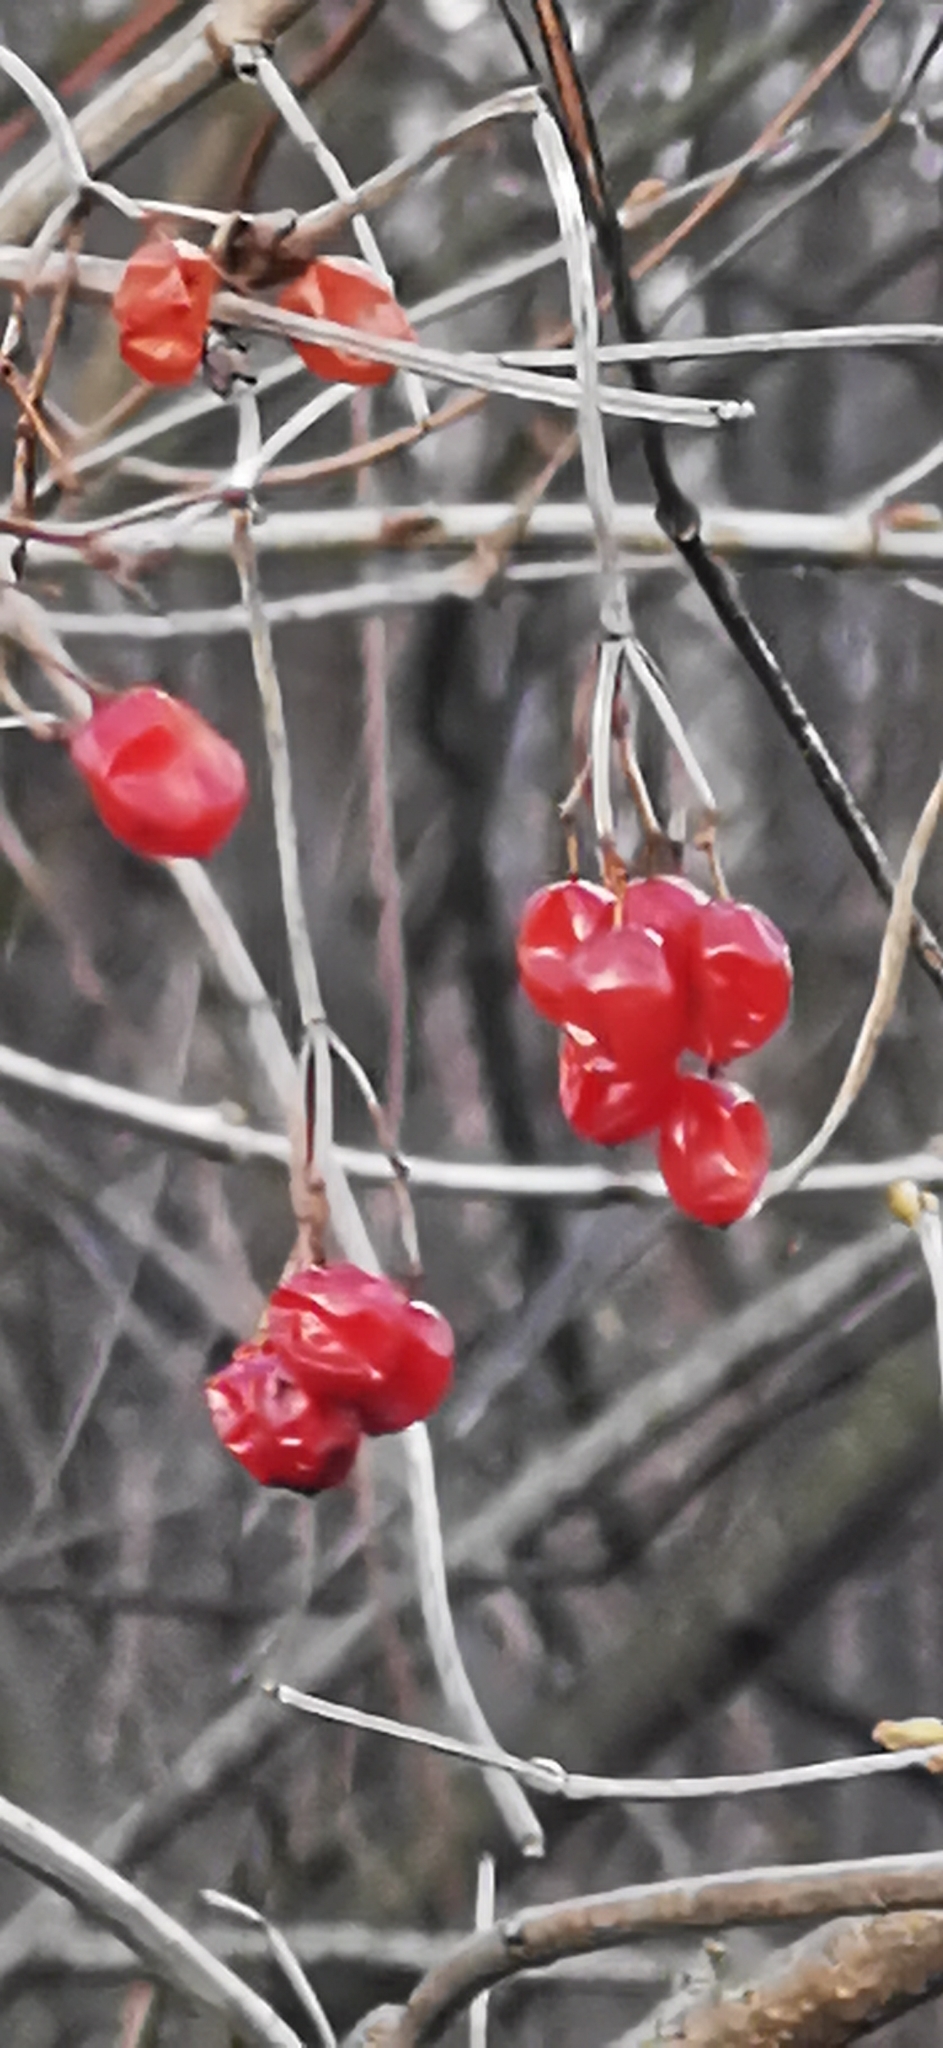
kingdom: Plantae
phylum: Tracheophyta
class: Magnoliopsida
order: Dipsacales
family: Viburnaceae
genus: Viburnum
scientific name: Viburnum opulus
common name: Guelder-rose
